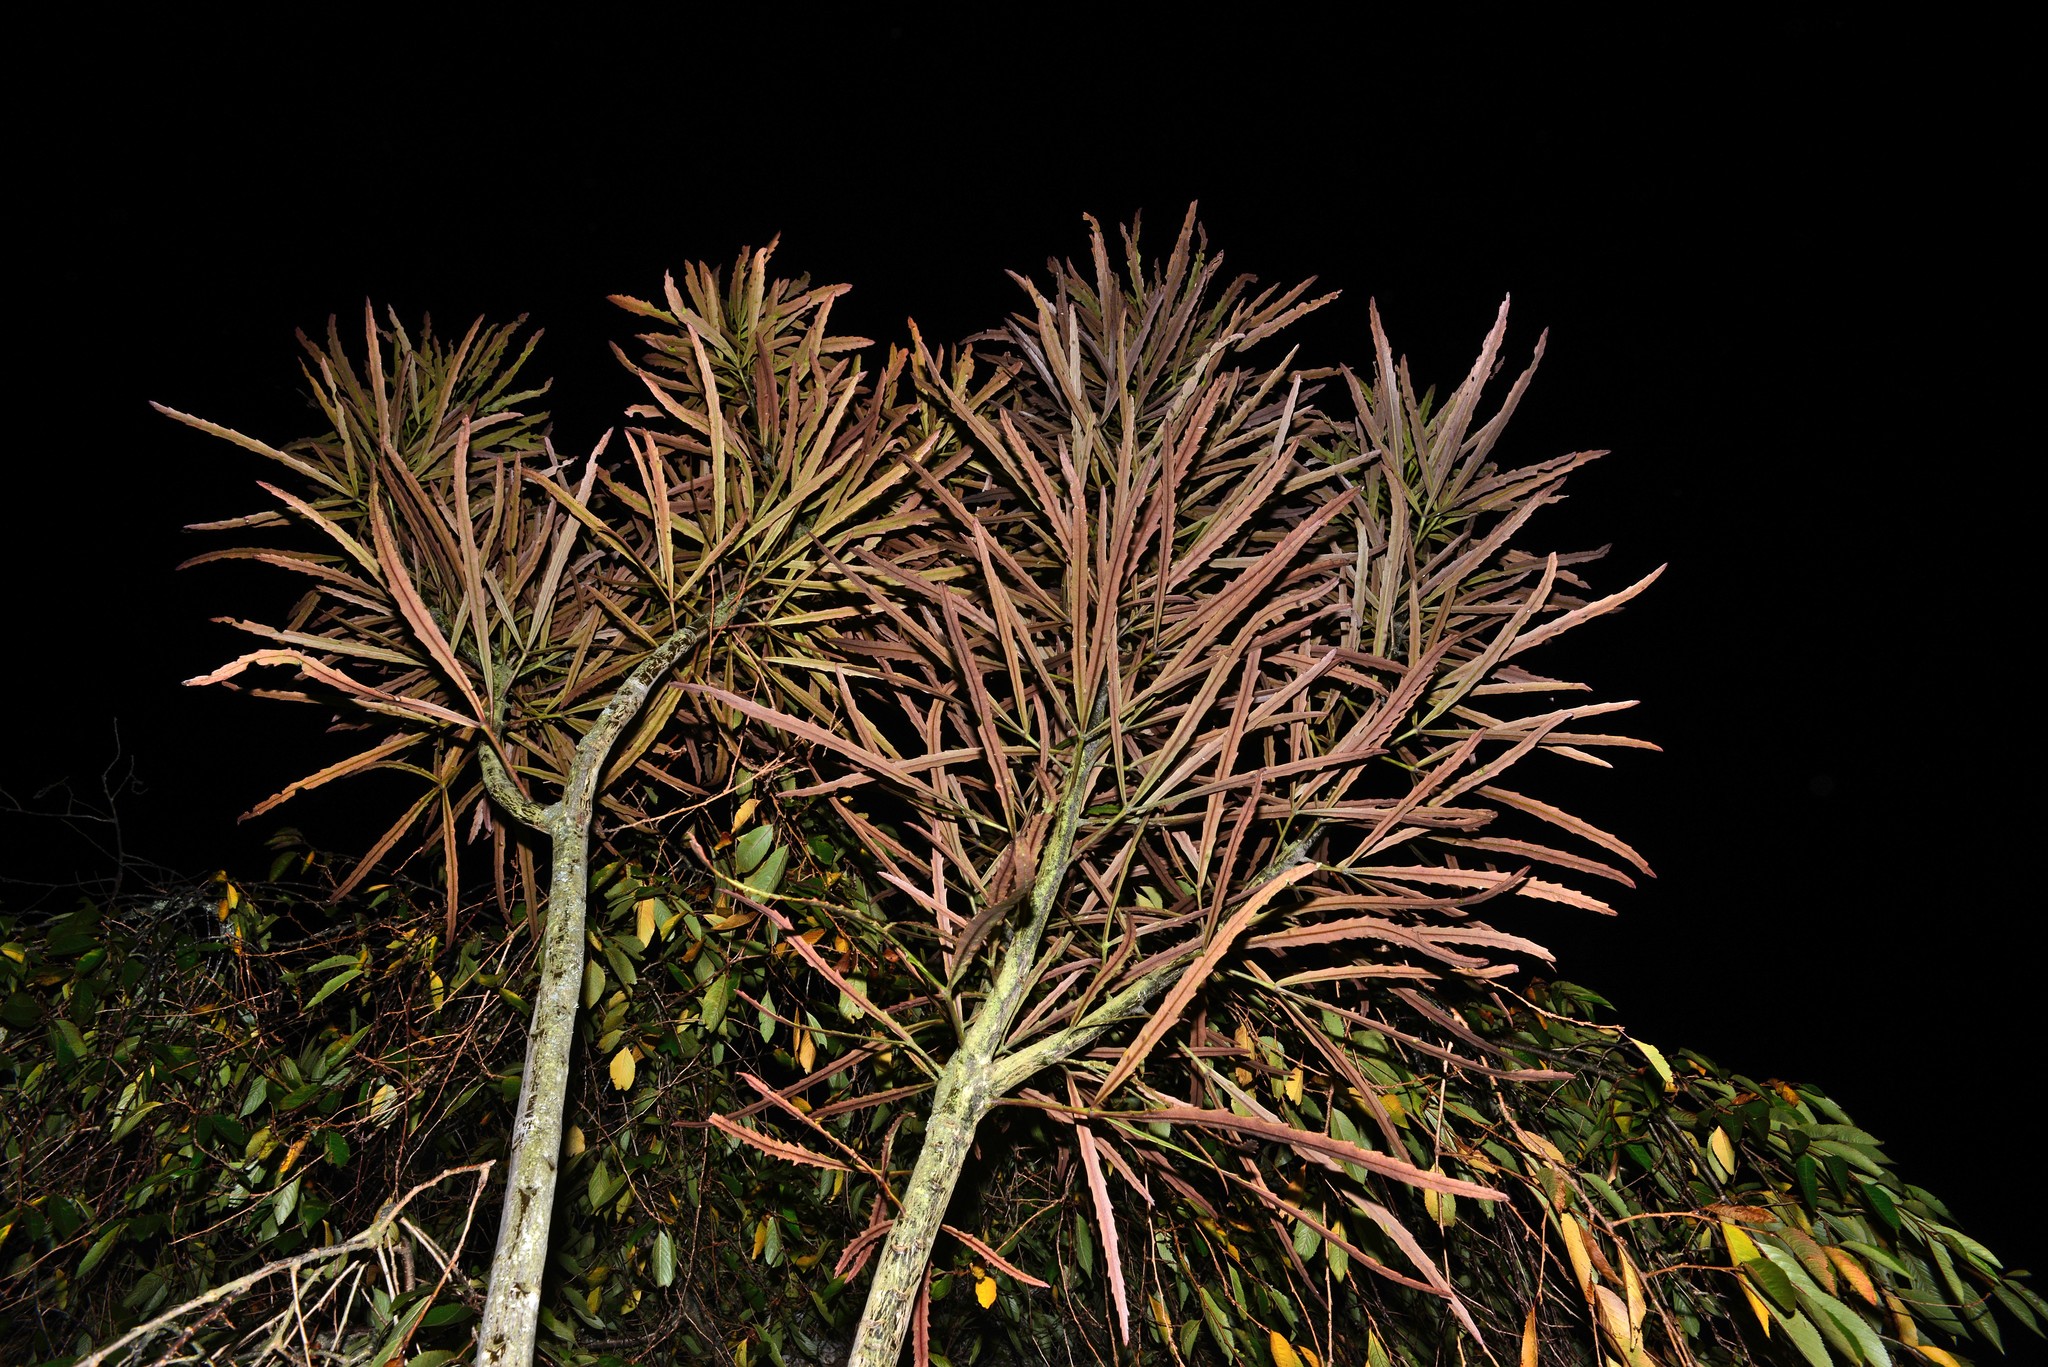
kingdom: Plantae
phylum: Tracheophyta
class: Magnoliopsida
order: Apiales
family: Araliaceae
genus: Pseudopanax
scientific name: Pseudopanax
